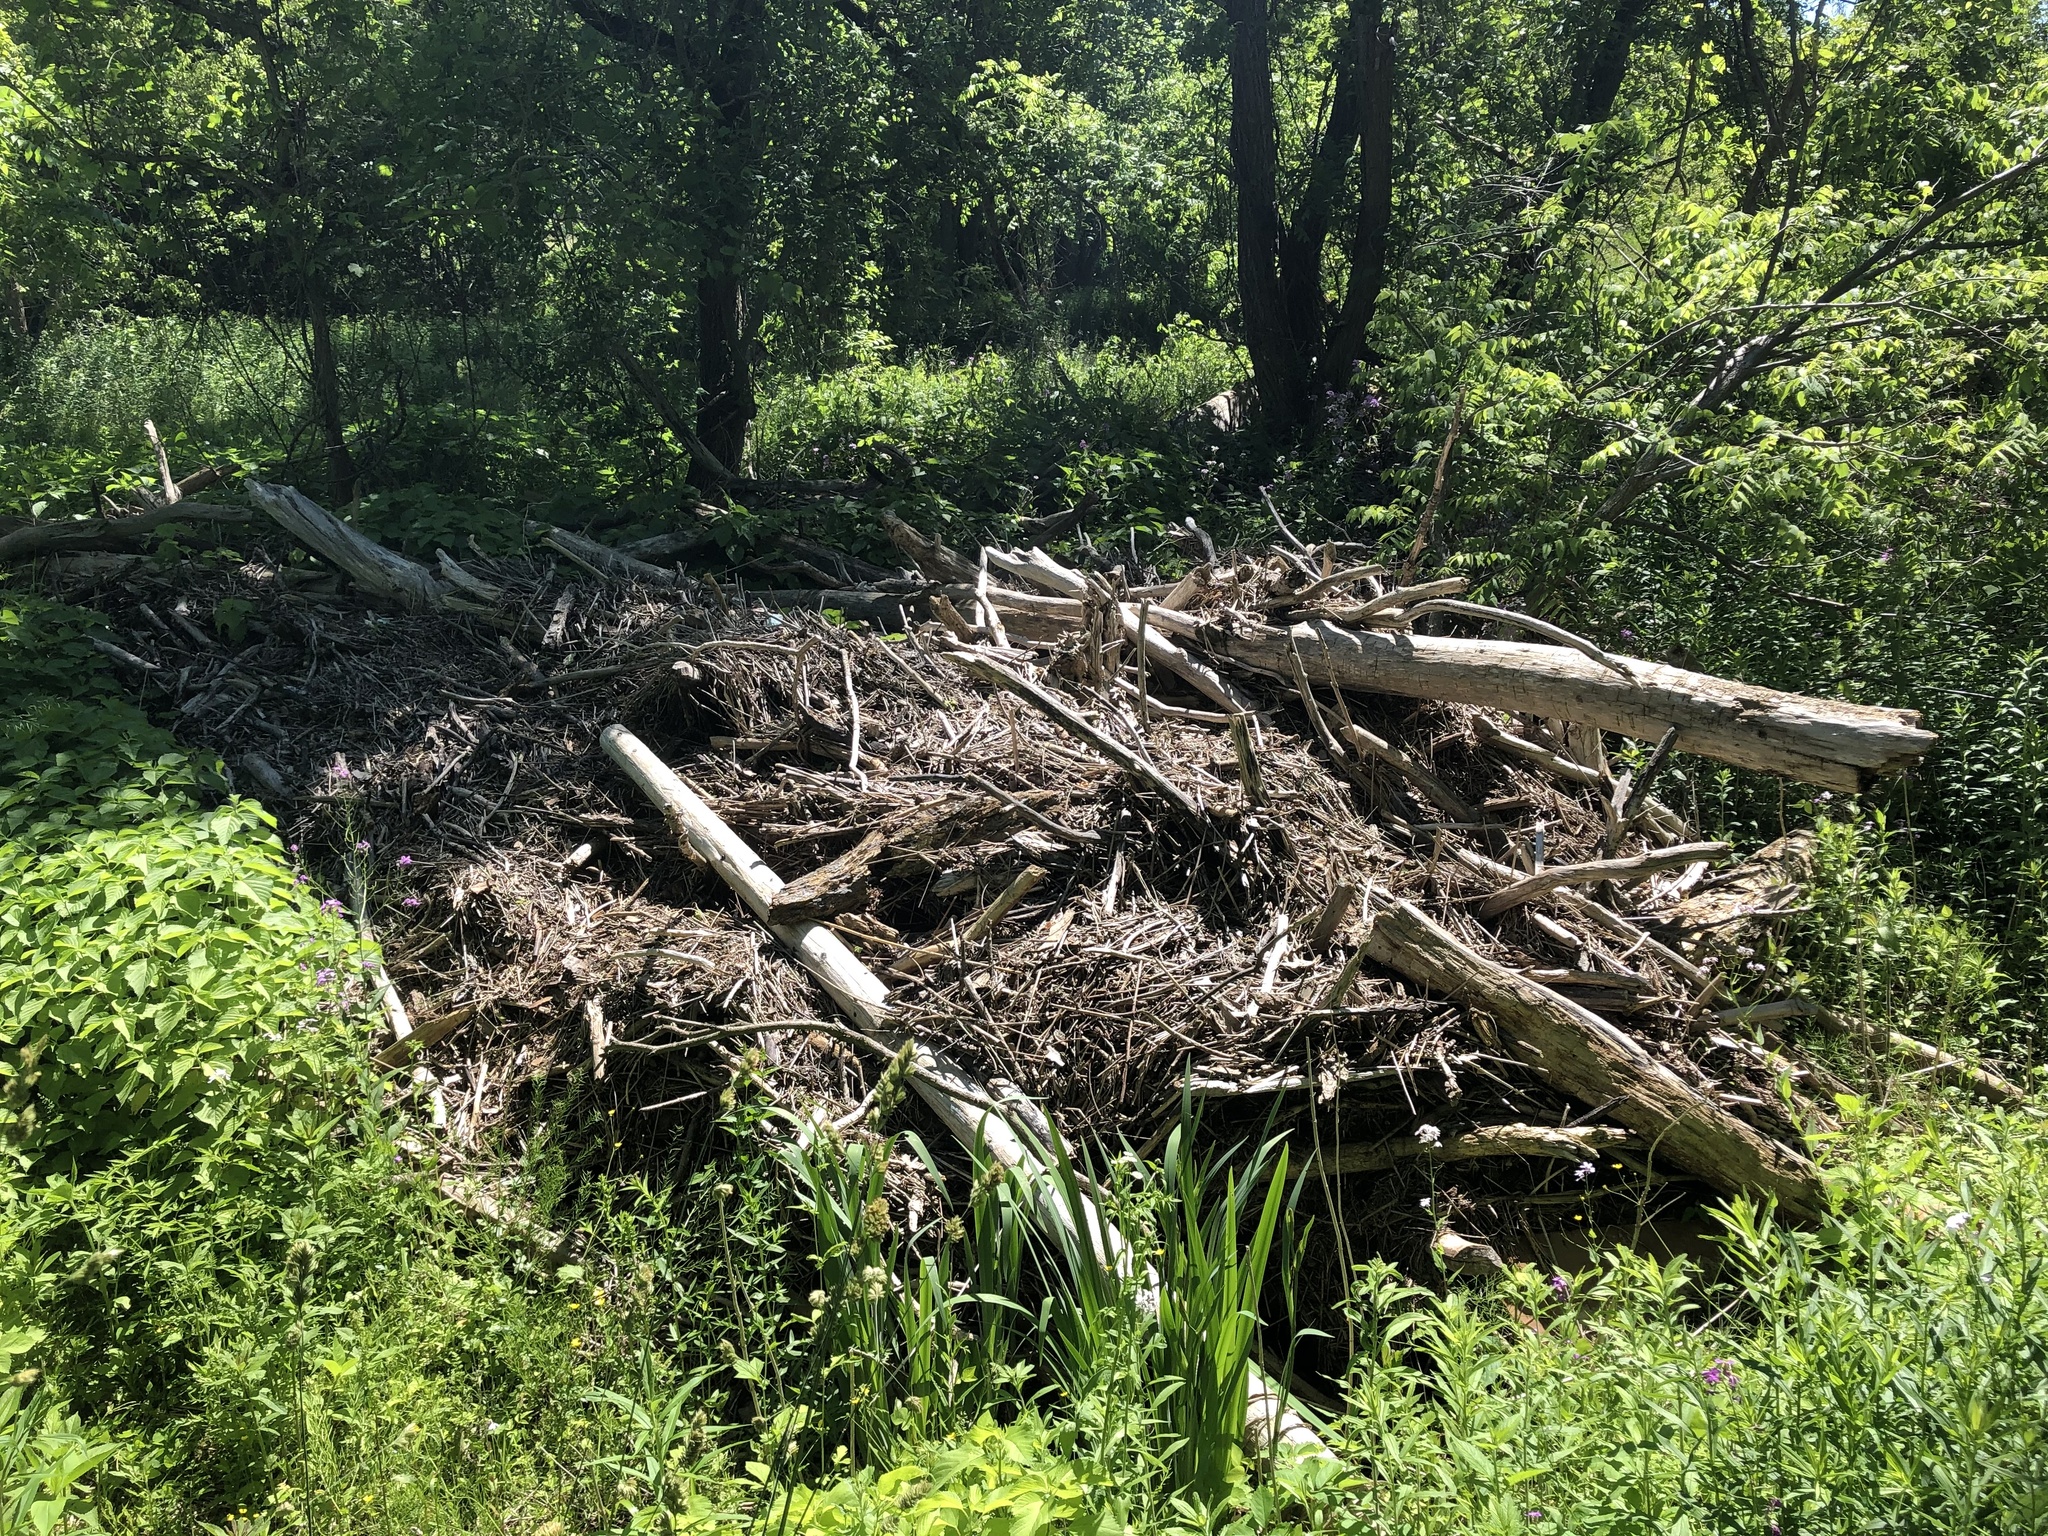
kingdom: Animalia
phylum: Chordata
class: Mammalia
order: Rodentia
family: Castoridae
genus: Castor
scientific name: Castor canadensis
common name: American beaver
